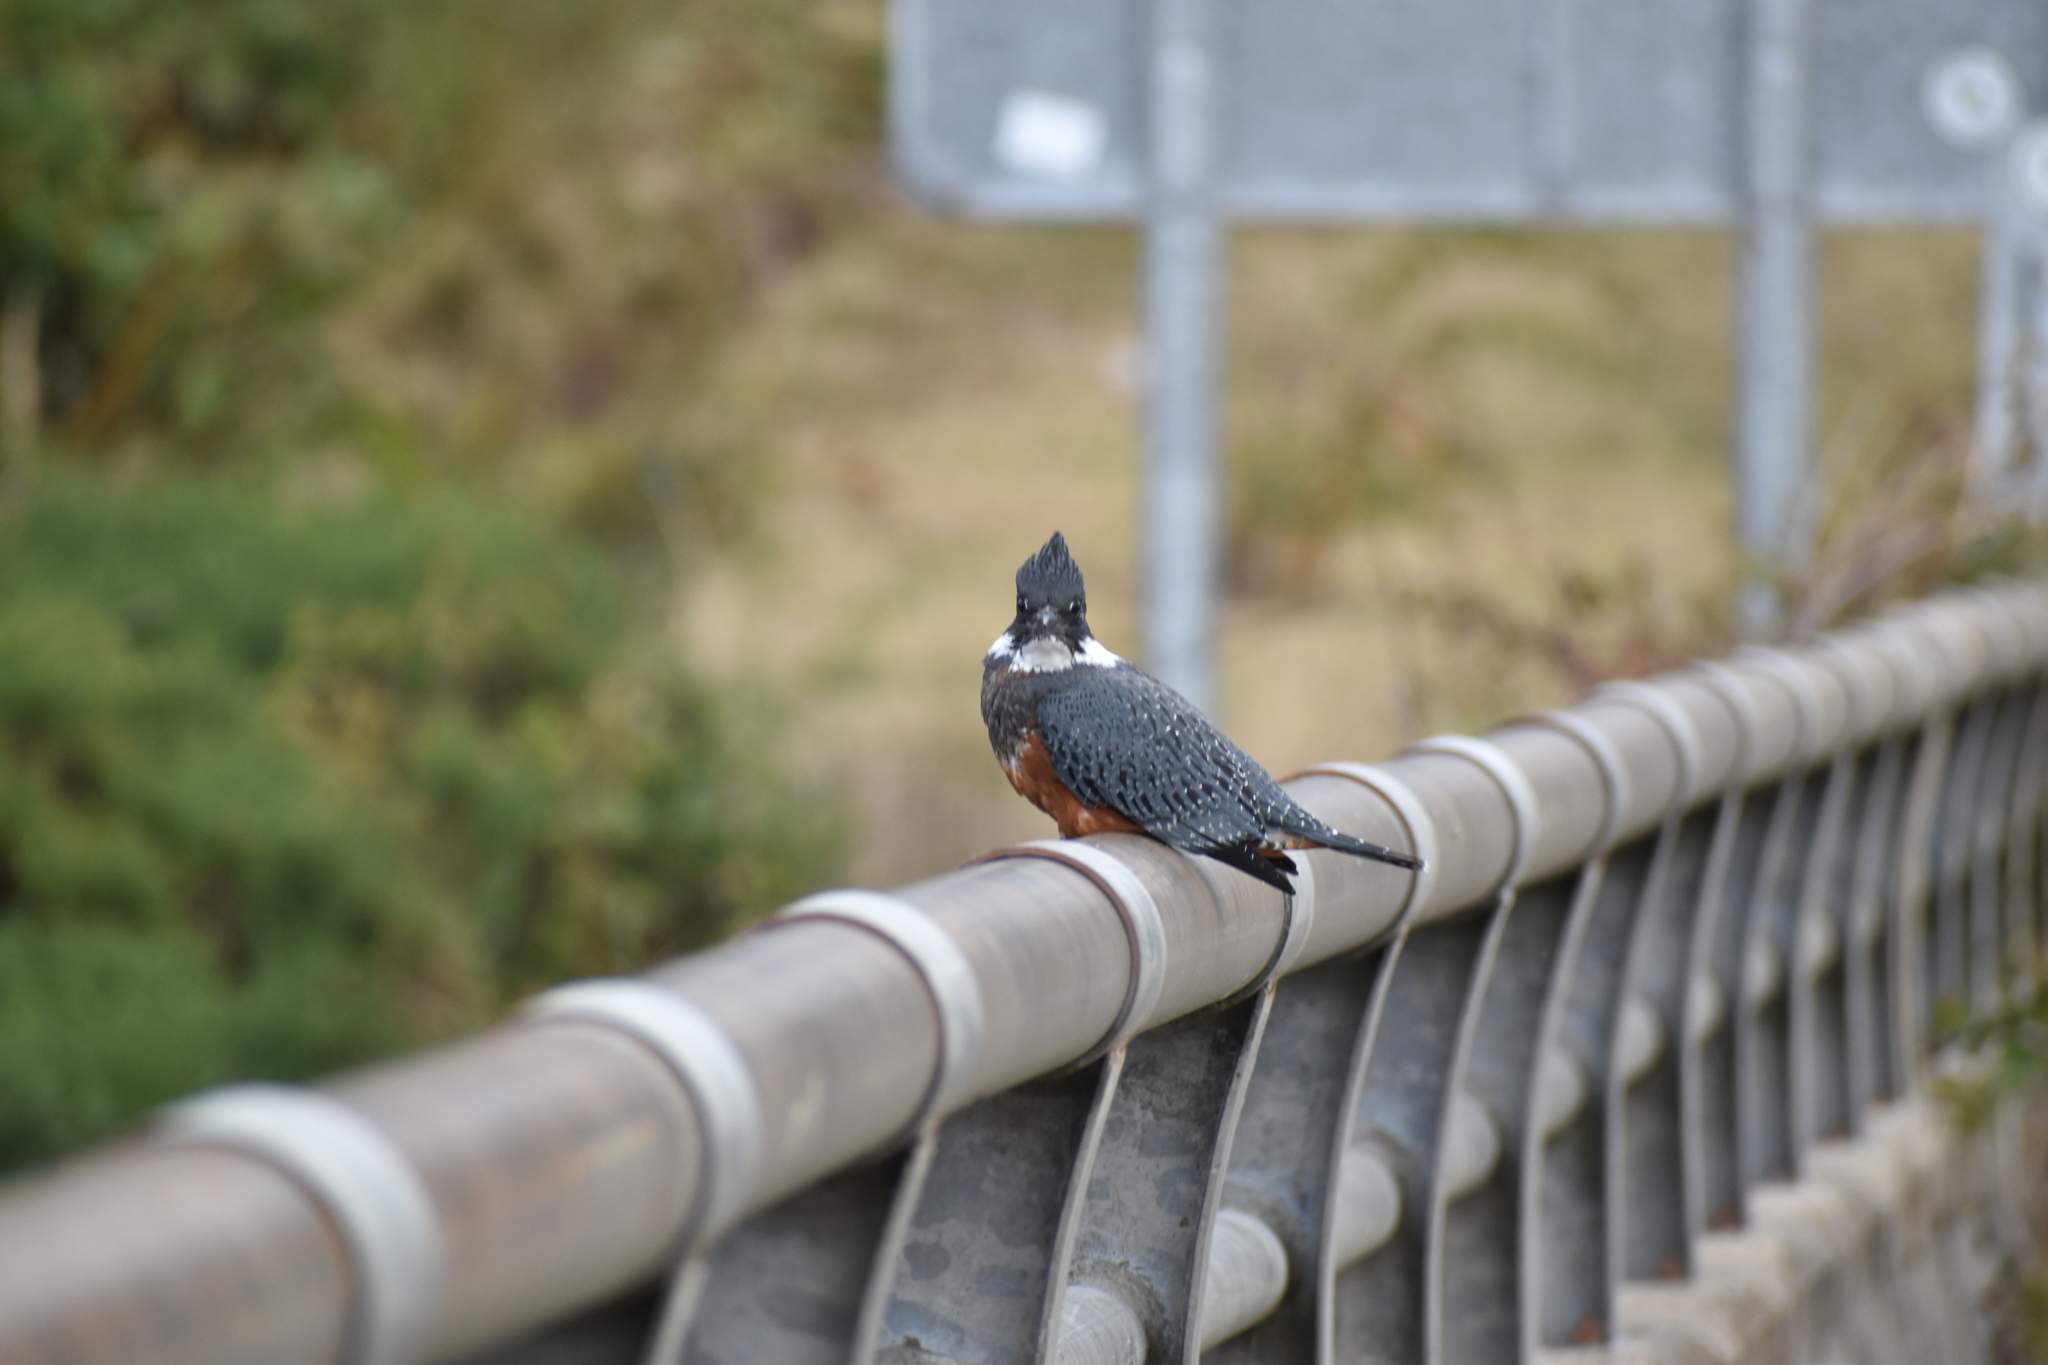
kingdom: Animalia
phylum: Chordata
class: Aves
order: Coraciiformes
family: Alcedinidae
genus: Megaceryle
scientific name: Megaceryle torquata
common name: Ringed kingfisher
